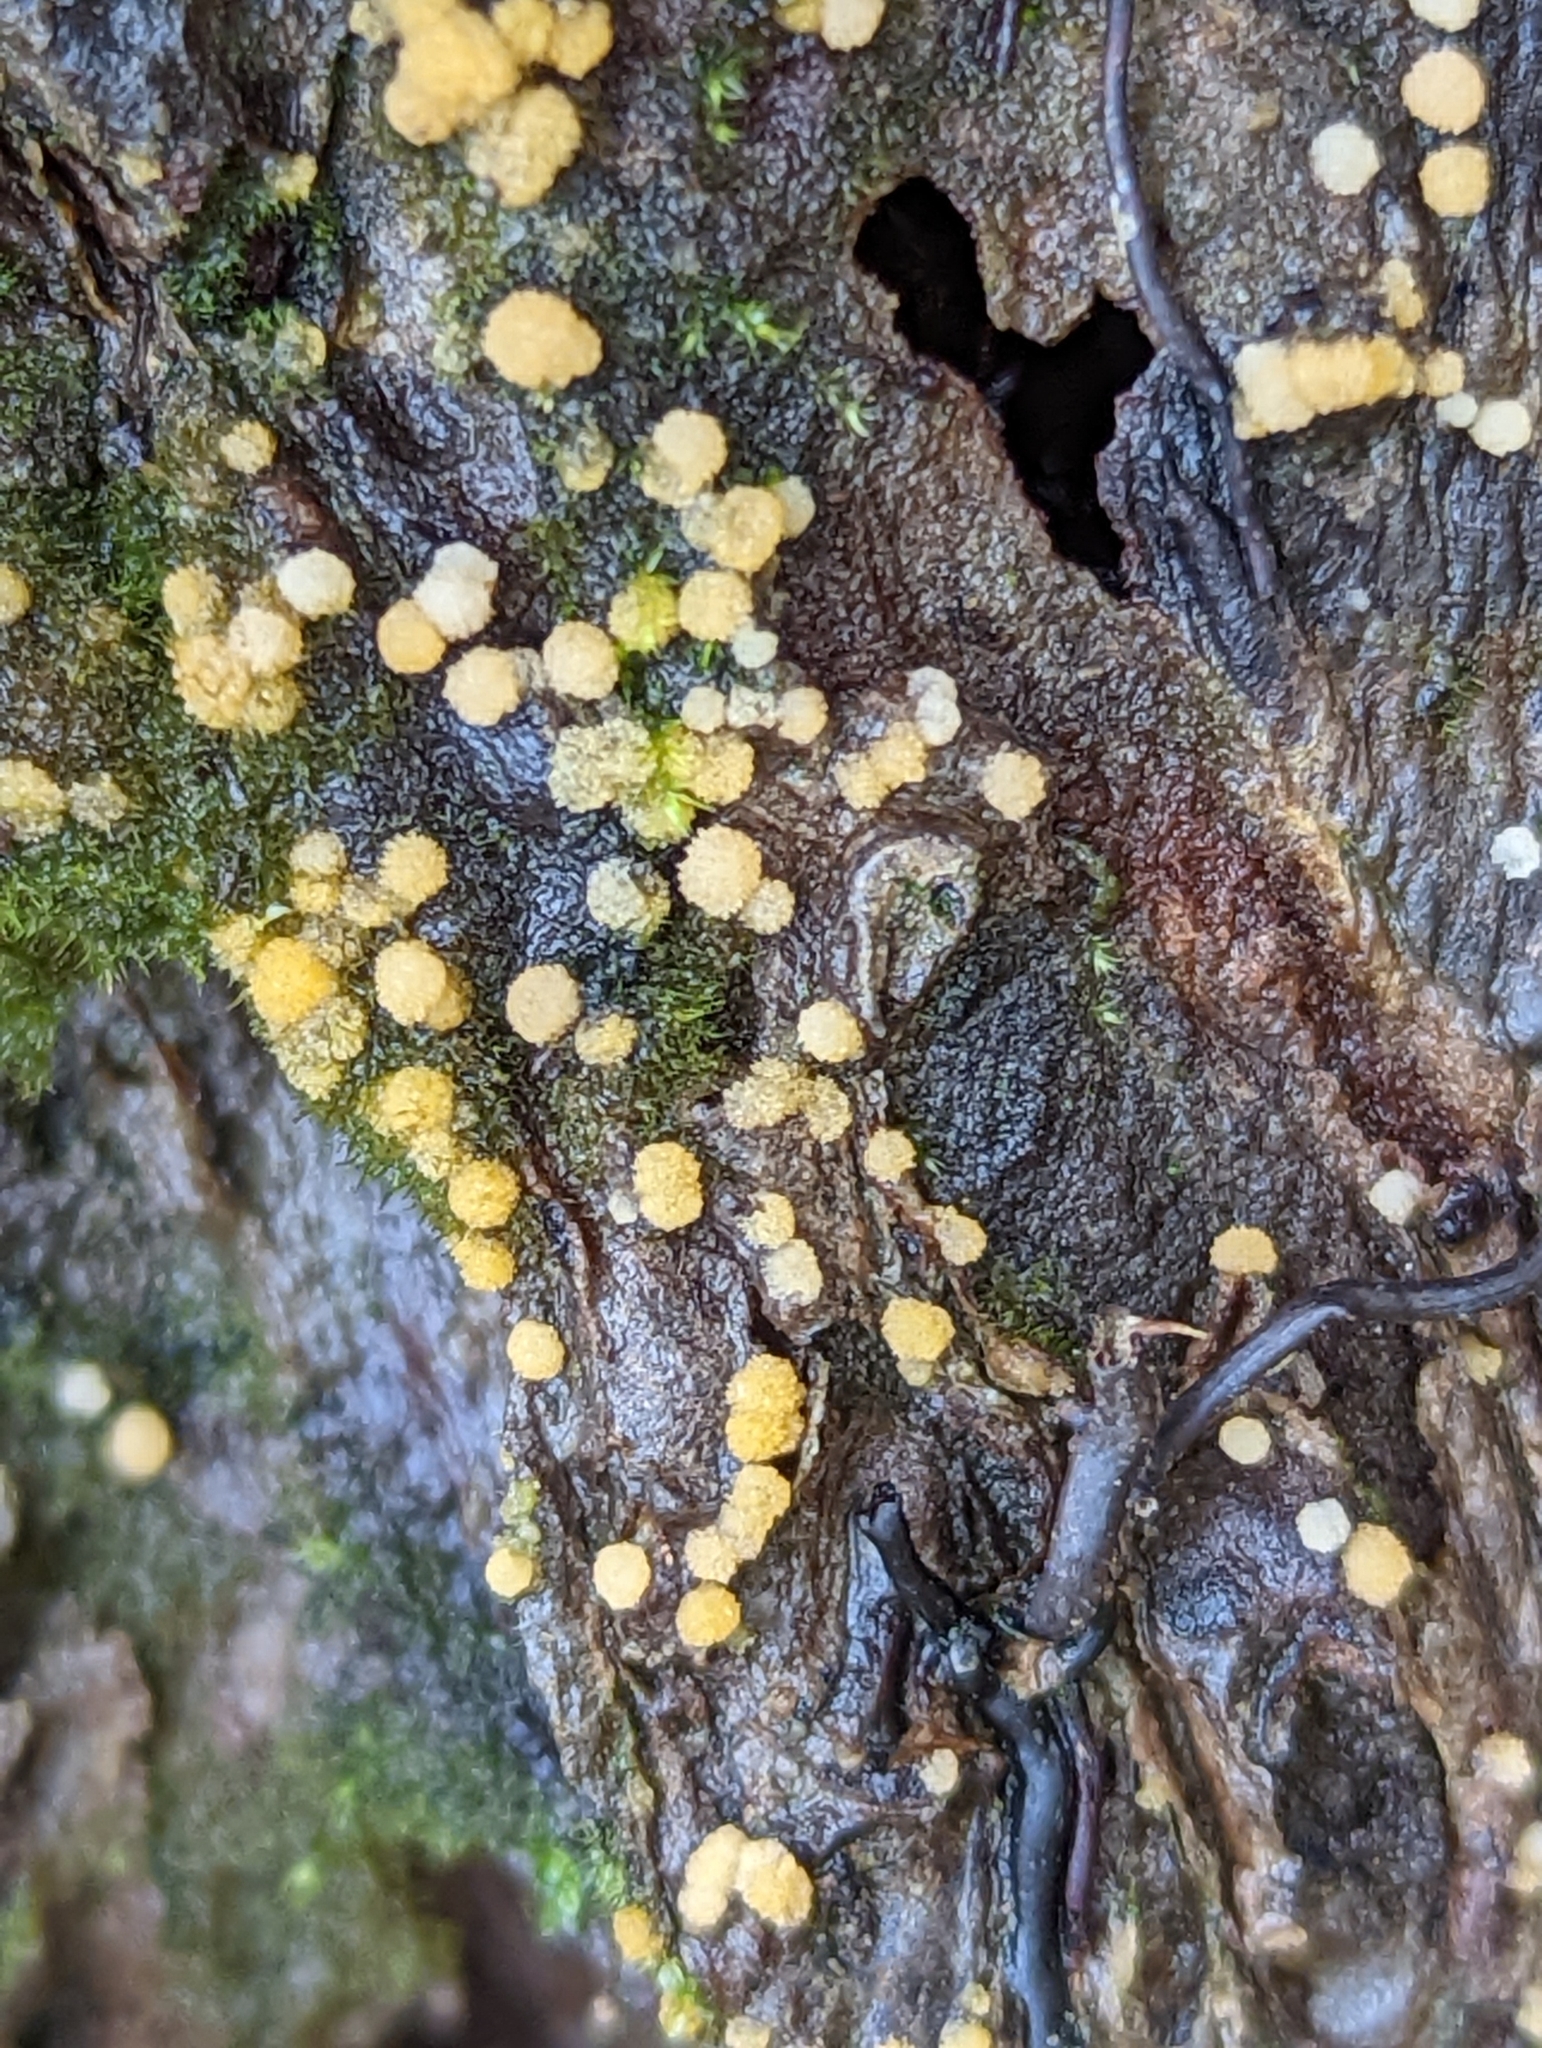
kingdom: Fungi
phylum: Ascomycota
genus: Bactridium
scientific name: Bactridium
